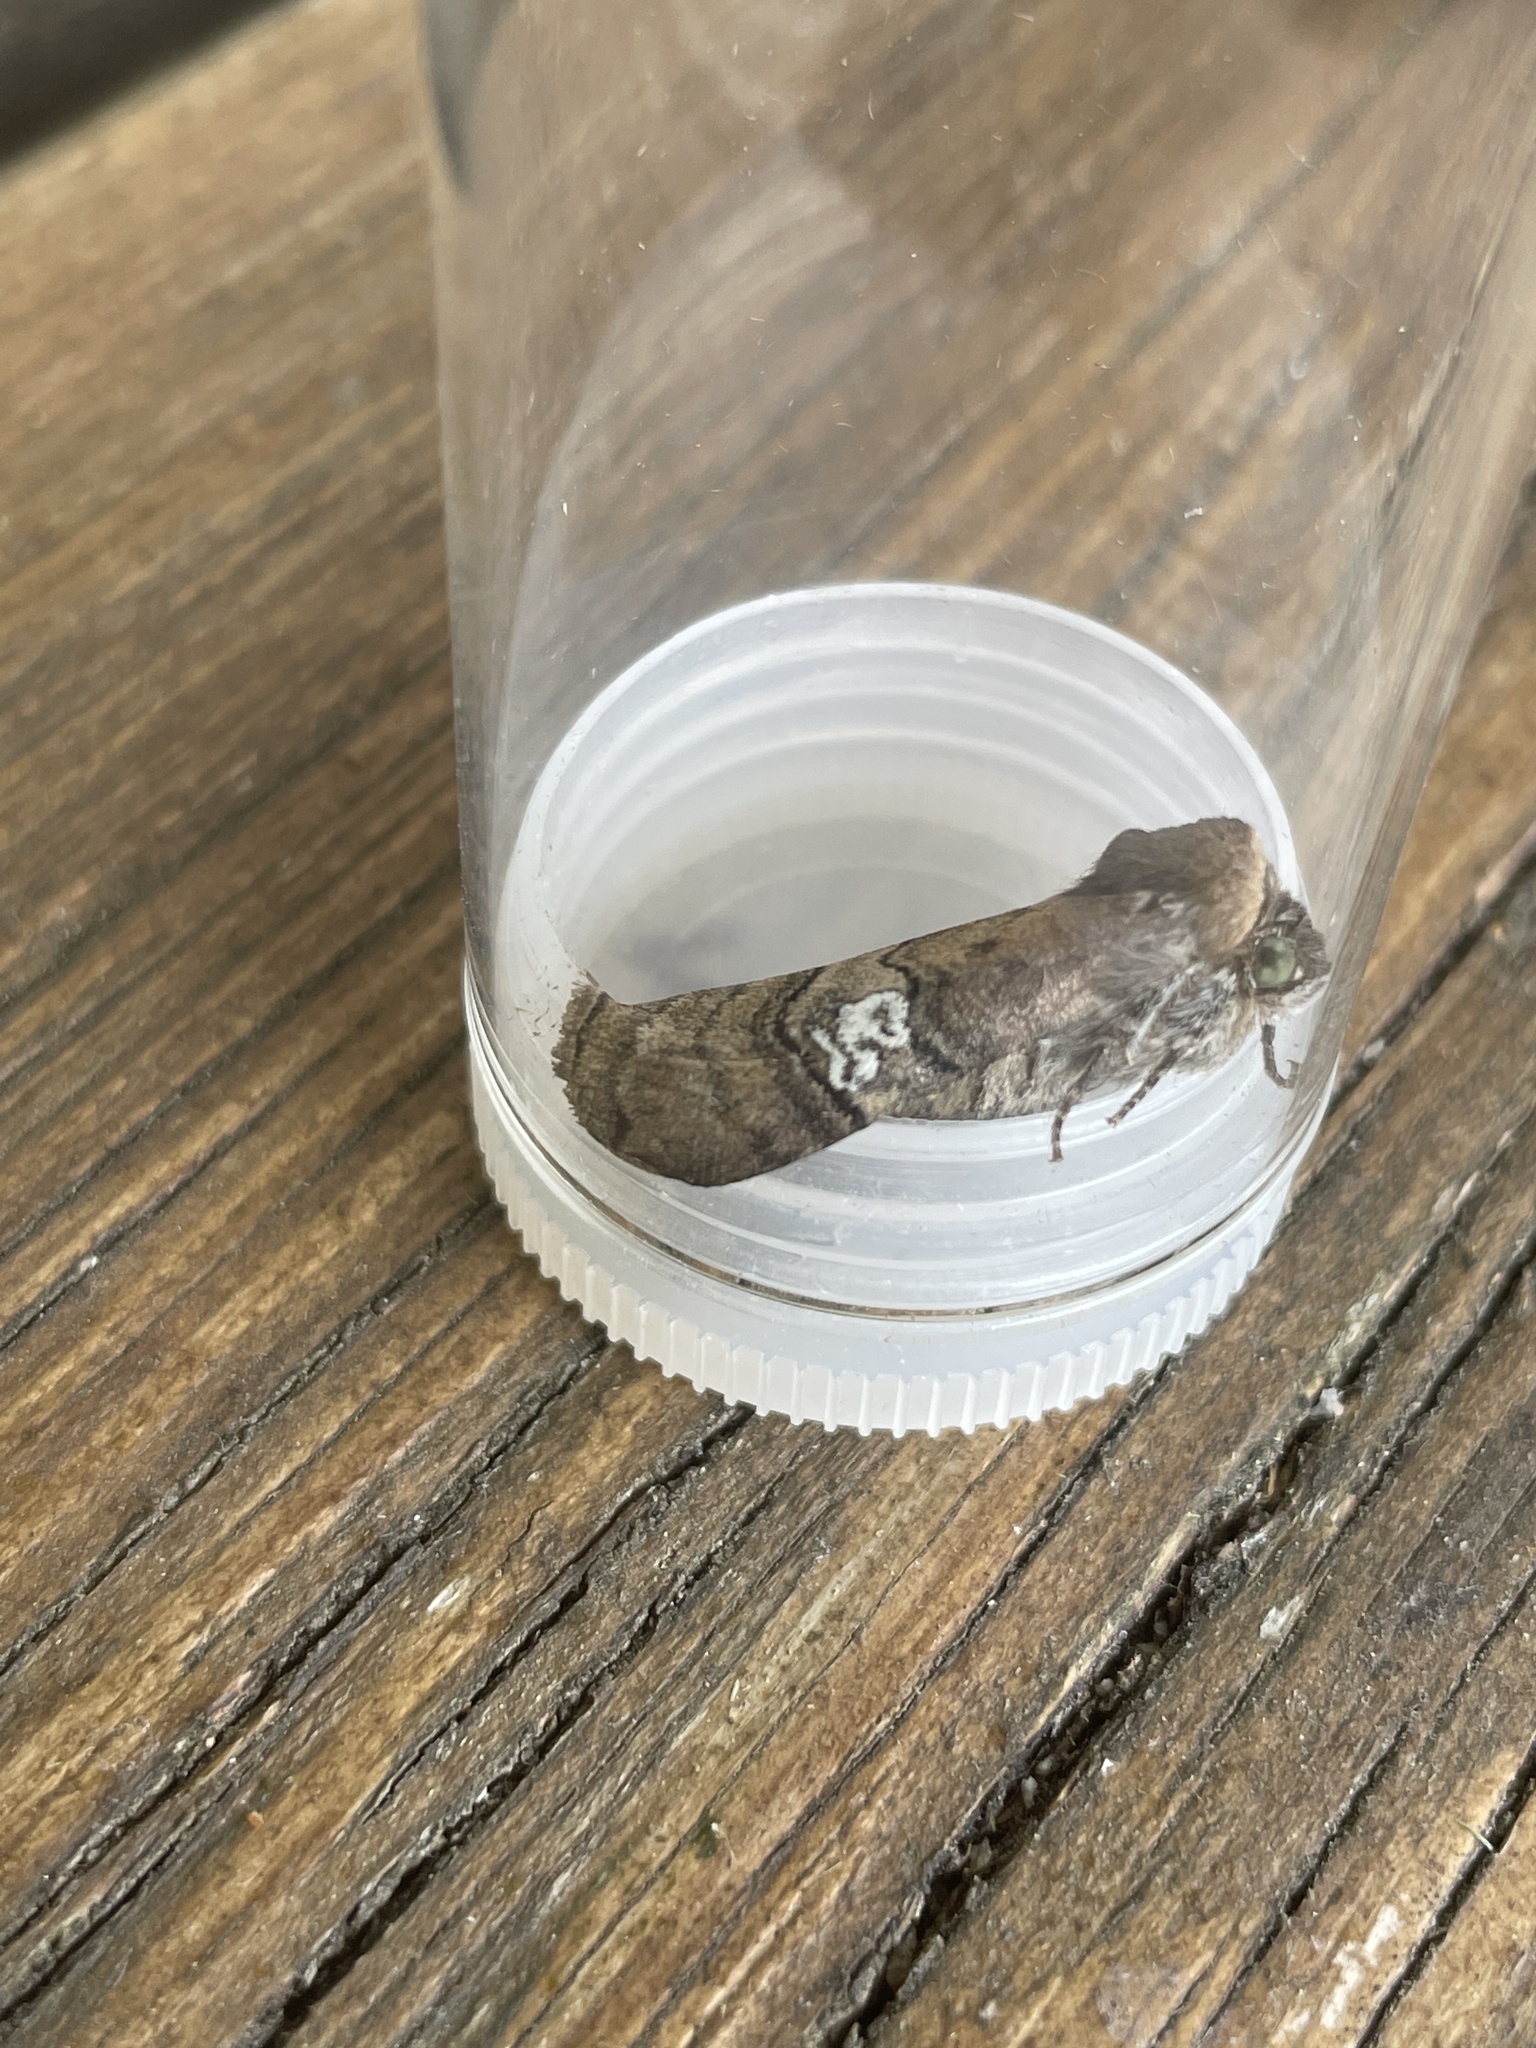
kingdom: Animalia
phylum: Arthropoda
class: Insecta
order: Lepidoptera
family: Drepanidae
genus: Tethea
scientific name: Tethea ocularis
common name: Figure of eighty
